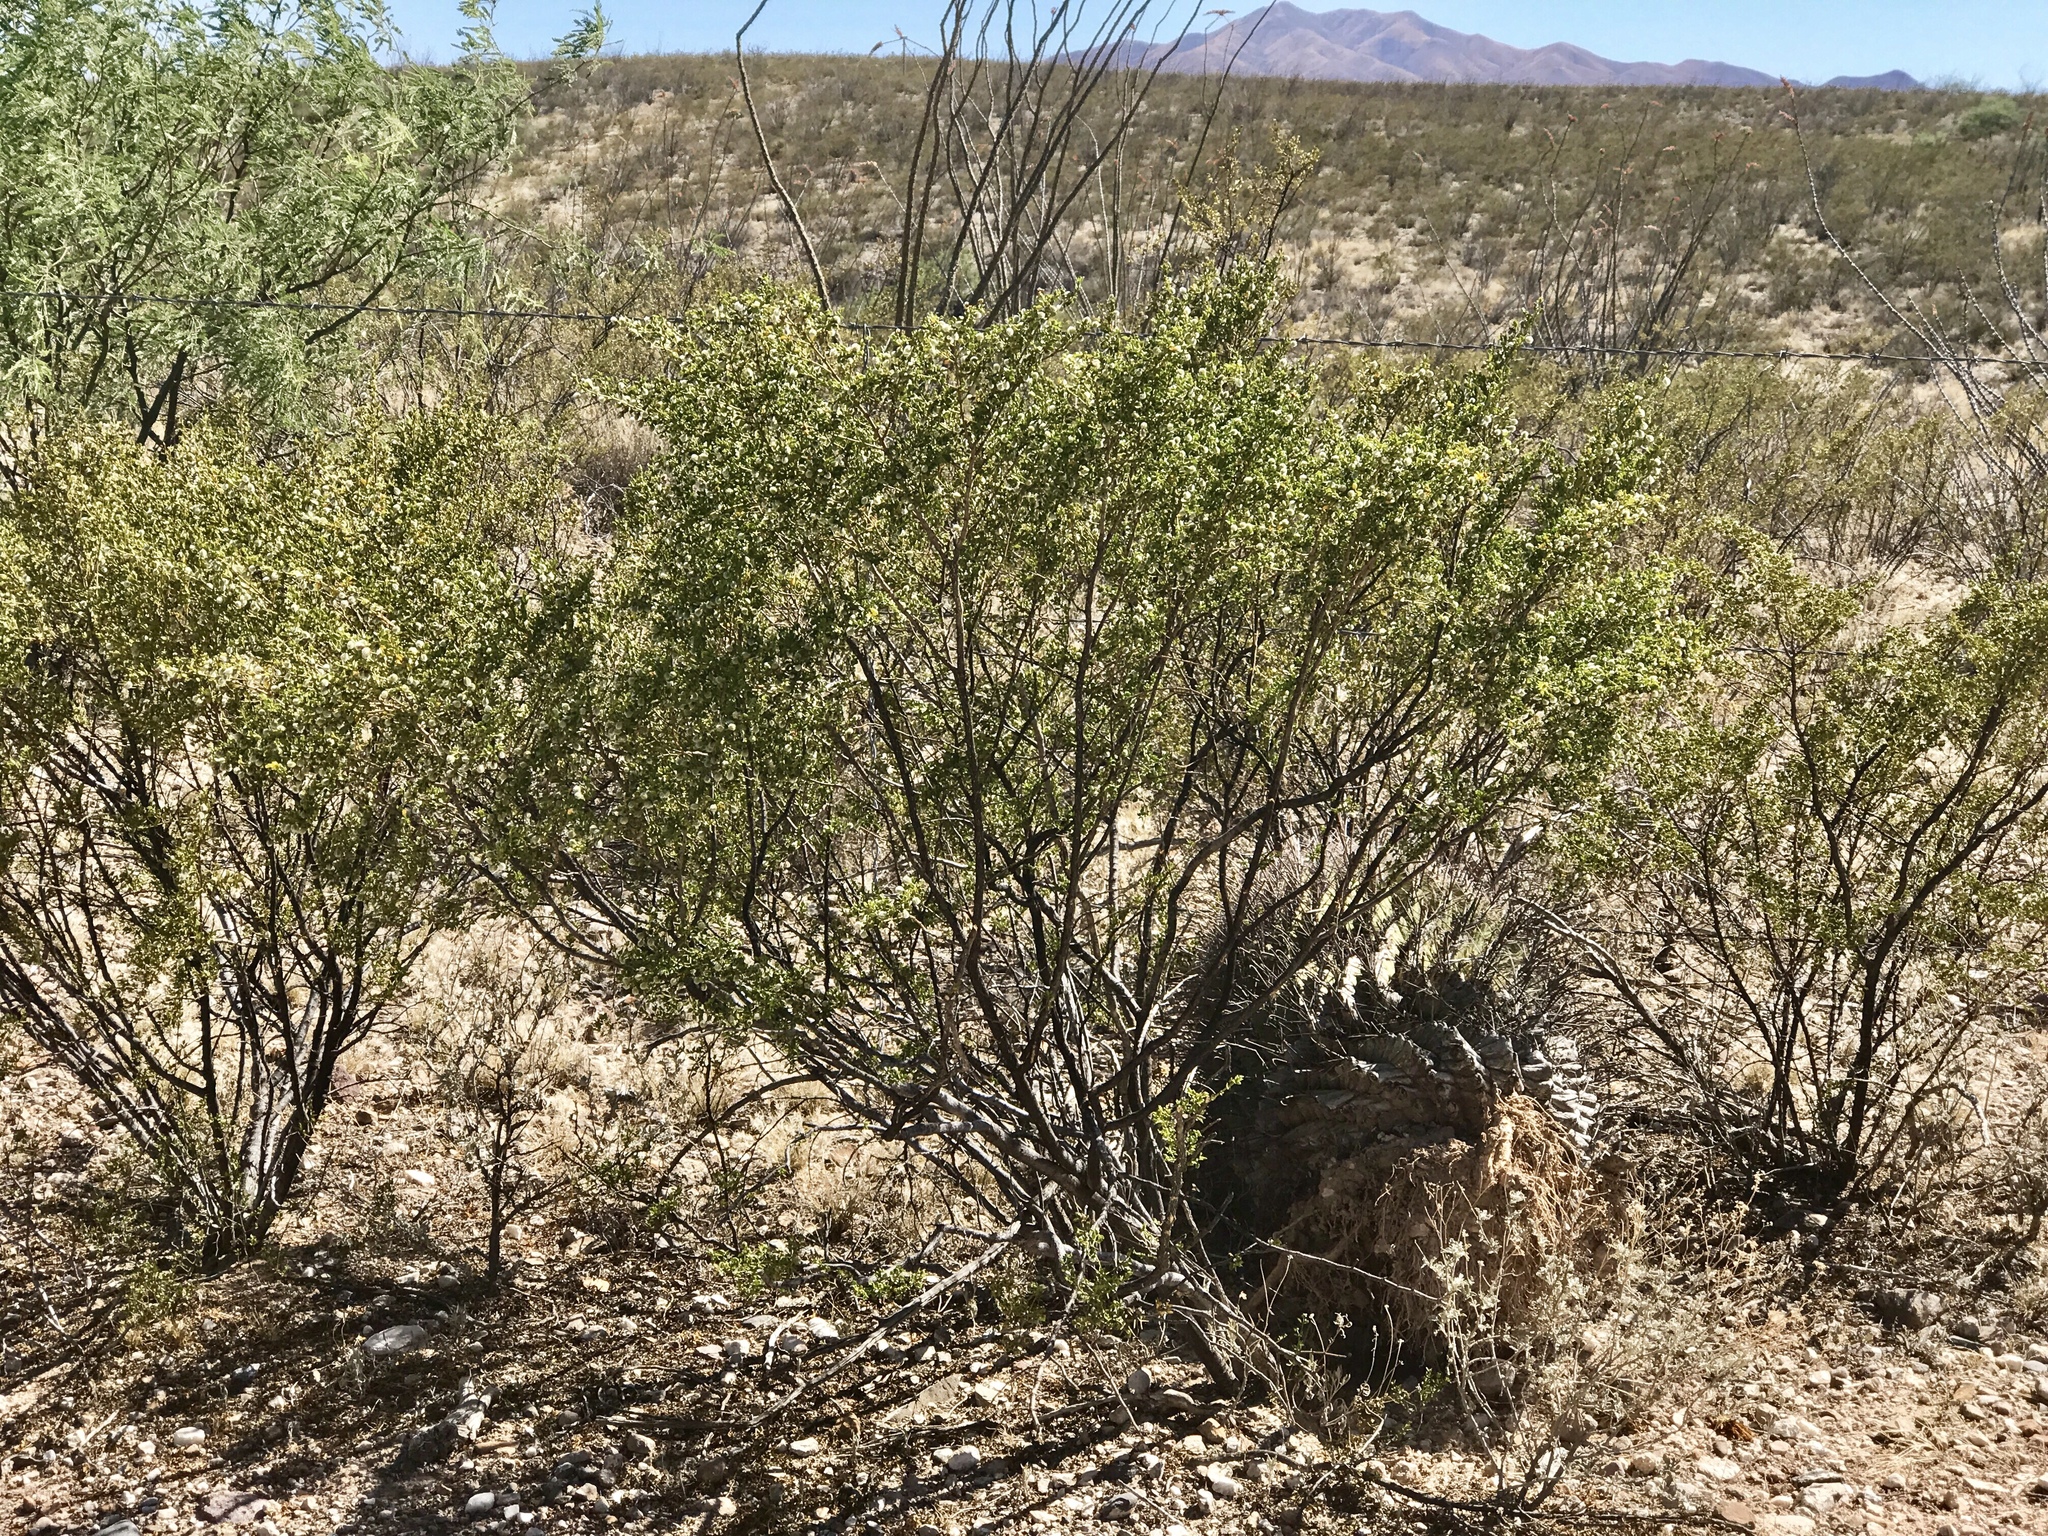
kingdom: Plantae
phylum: Tracheophyta
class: Magnoliopsida
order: Zygophyllales
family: Zygophyllaceae
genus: Larrea
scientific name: Larrea tridentata
